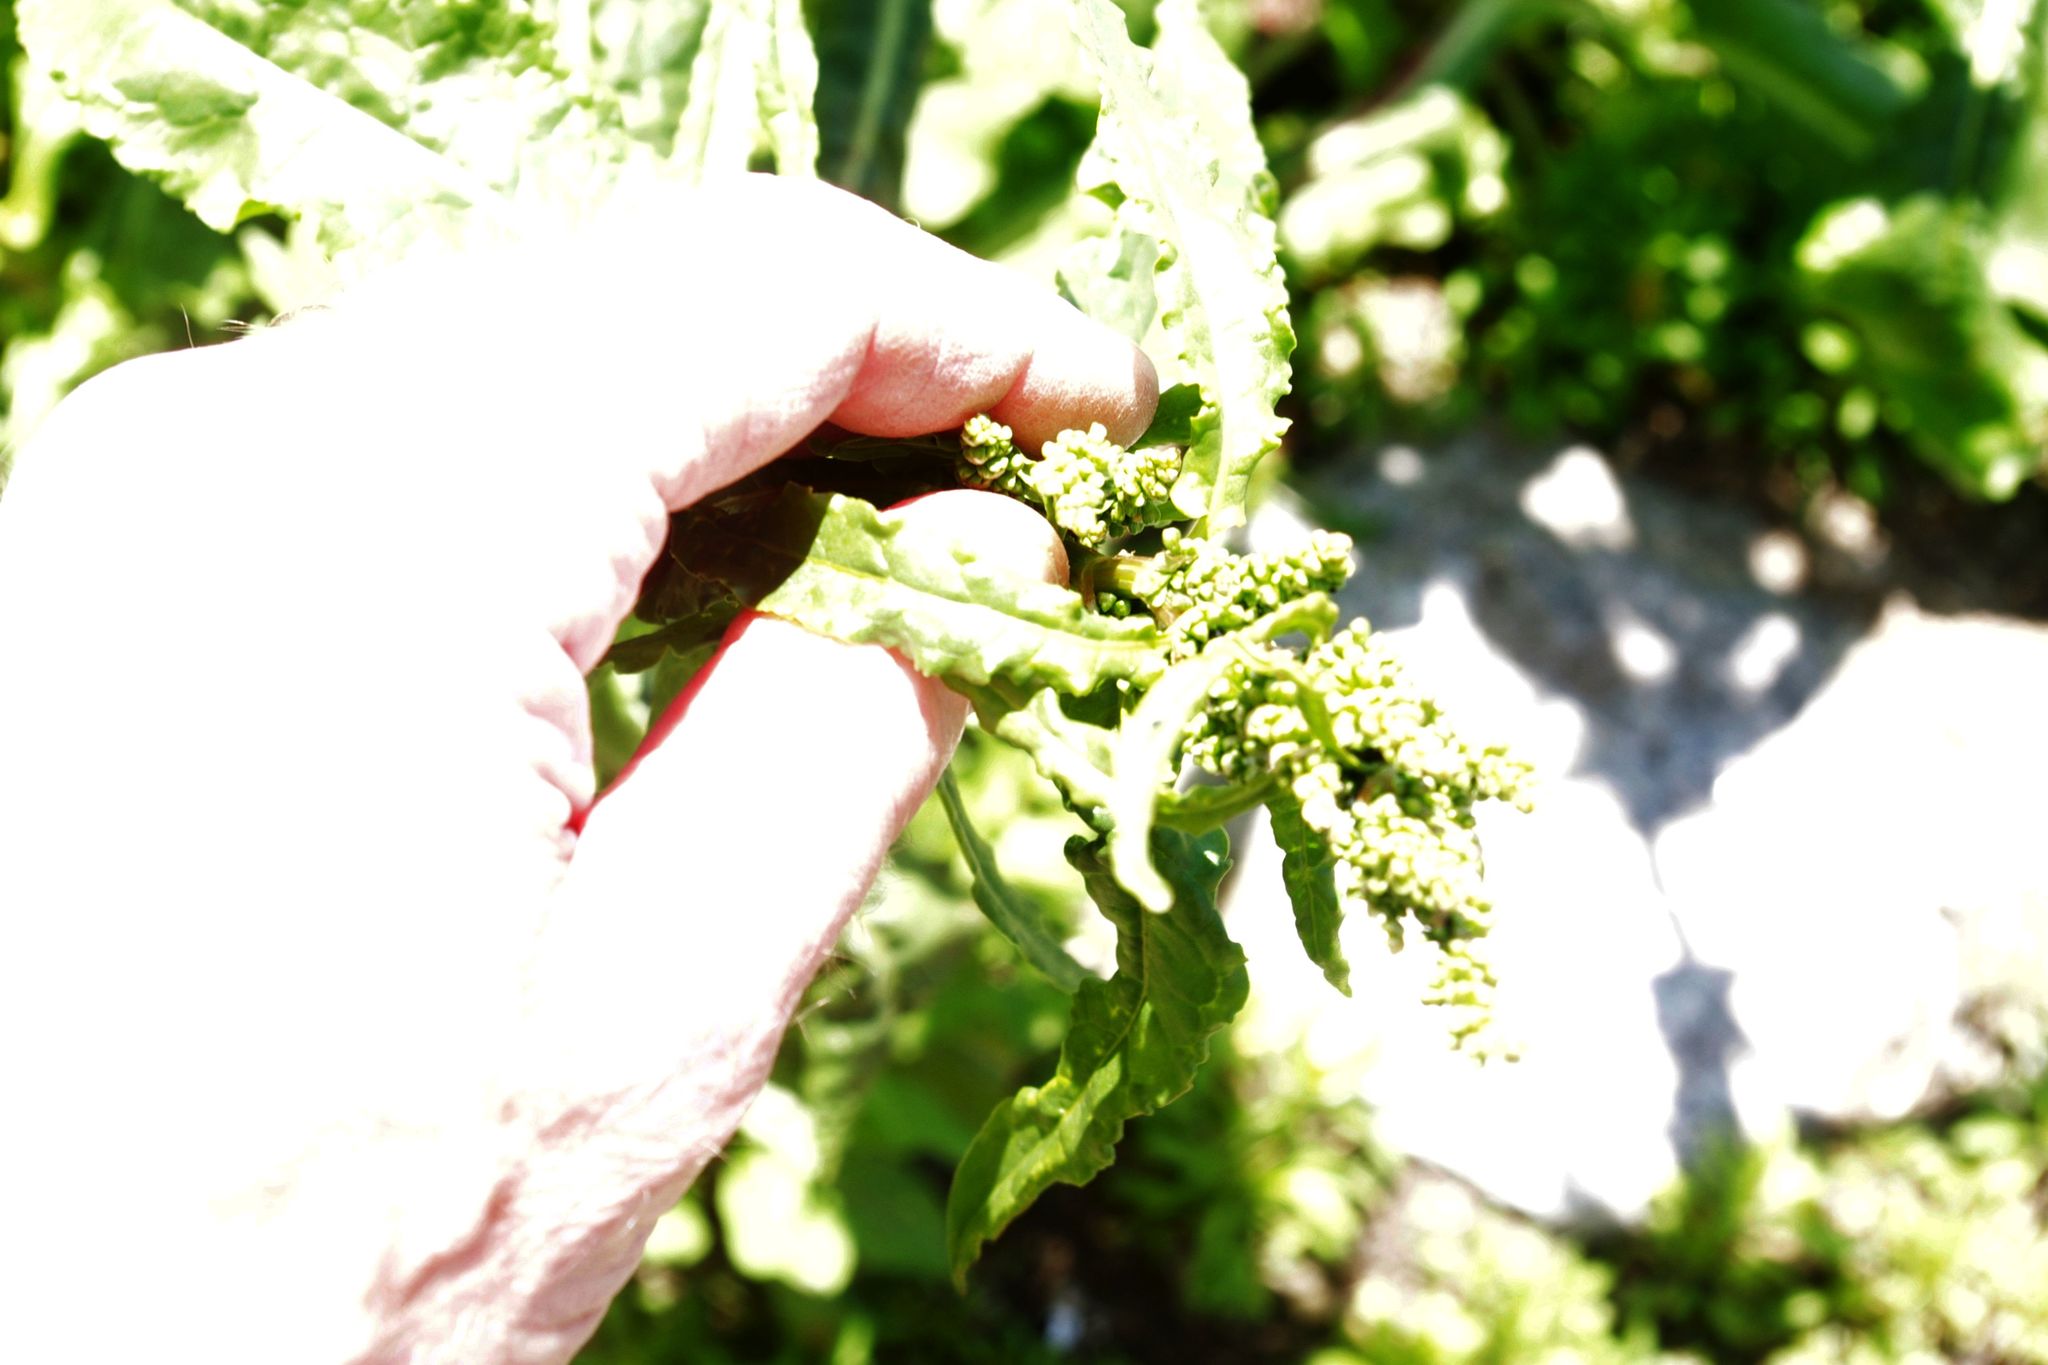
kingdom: Plantae
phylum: Tracheophyta
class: Magnoliopsida
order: Caryophyllales
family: Polygonaceae
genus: Rumex
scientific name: Rumex crispus
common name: Curled dock
